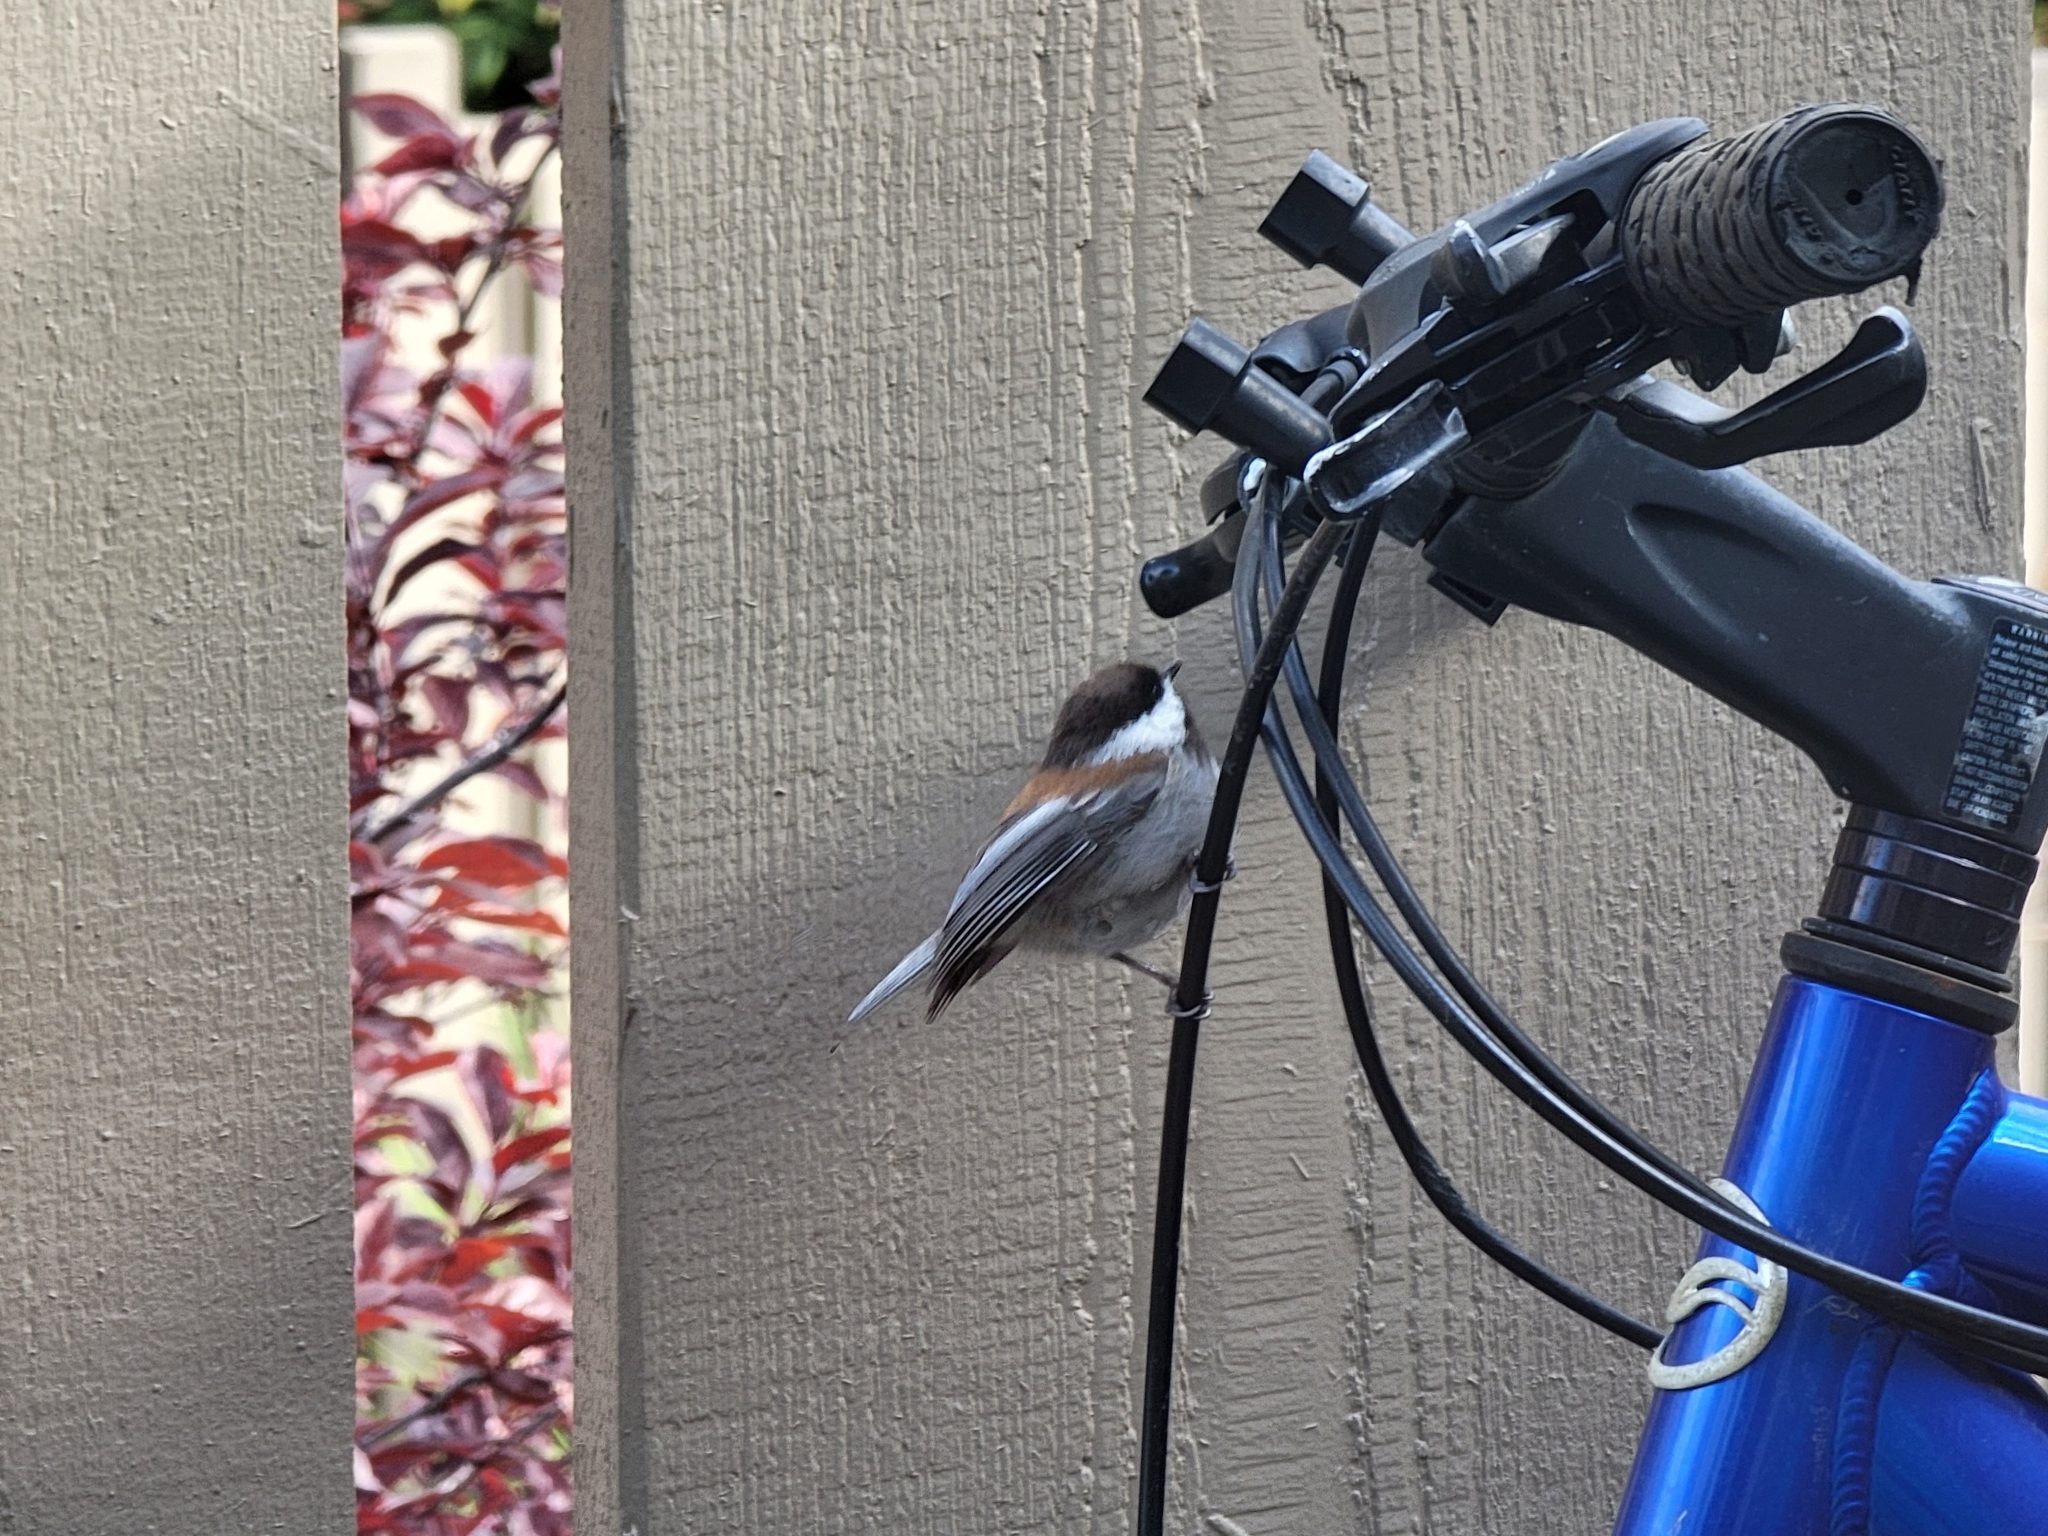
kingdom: Animalia
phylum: Chordata
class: Aves
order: Passeriformes
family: Paridae
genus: Poecile
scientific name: Poecile rufescens
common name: Chestnut-backed chickadee
